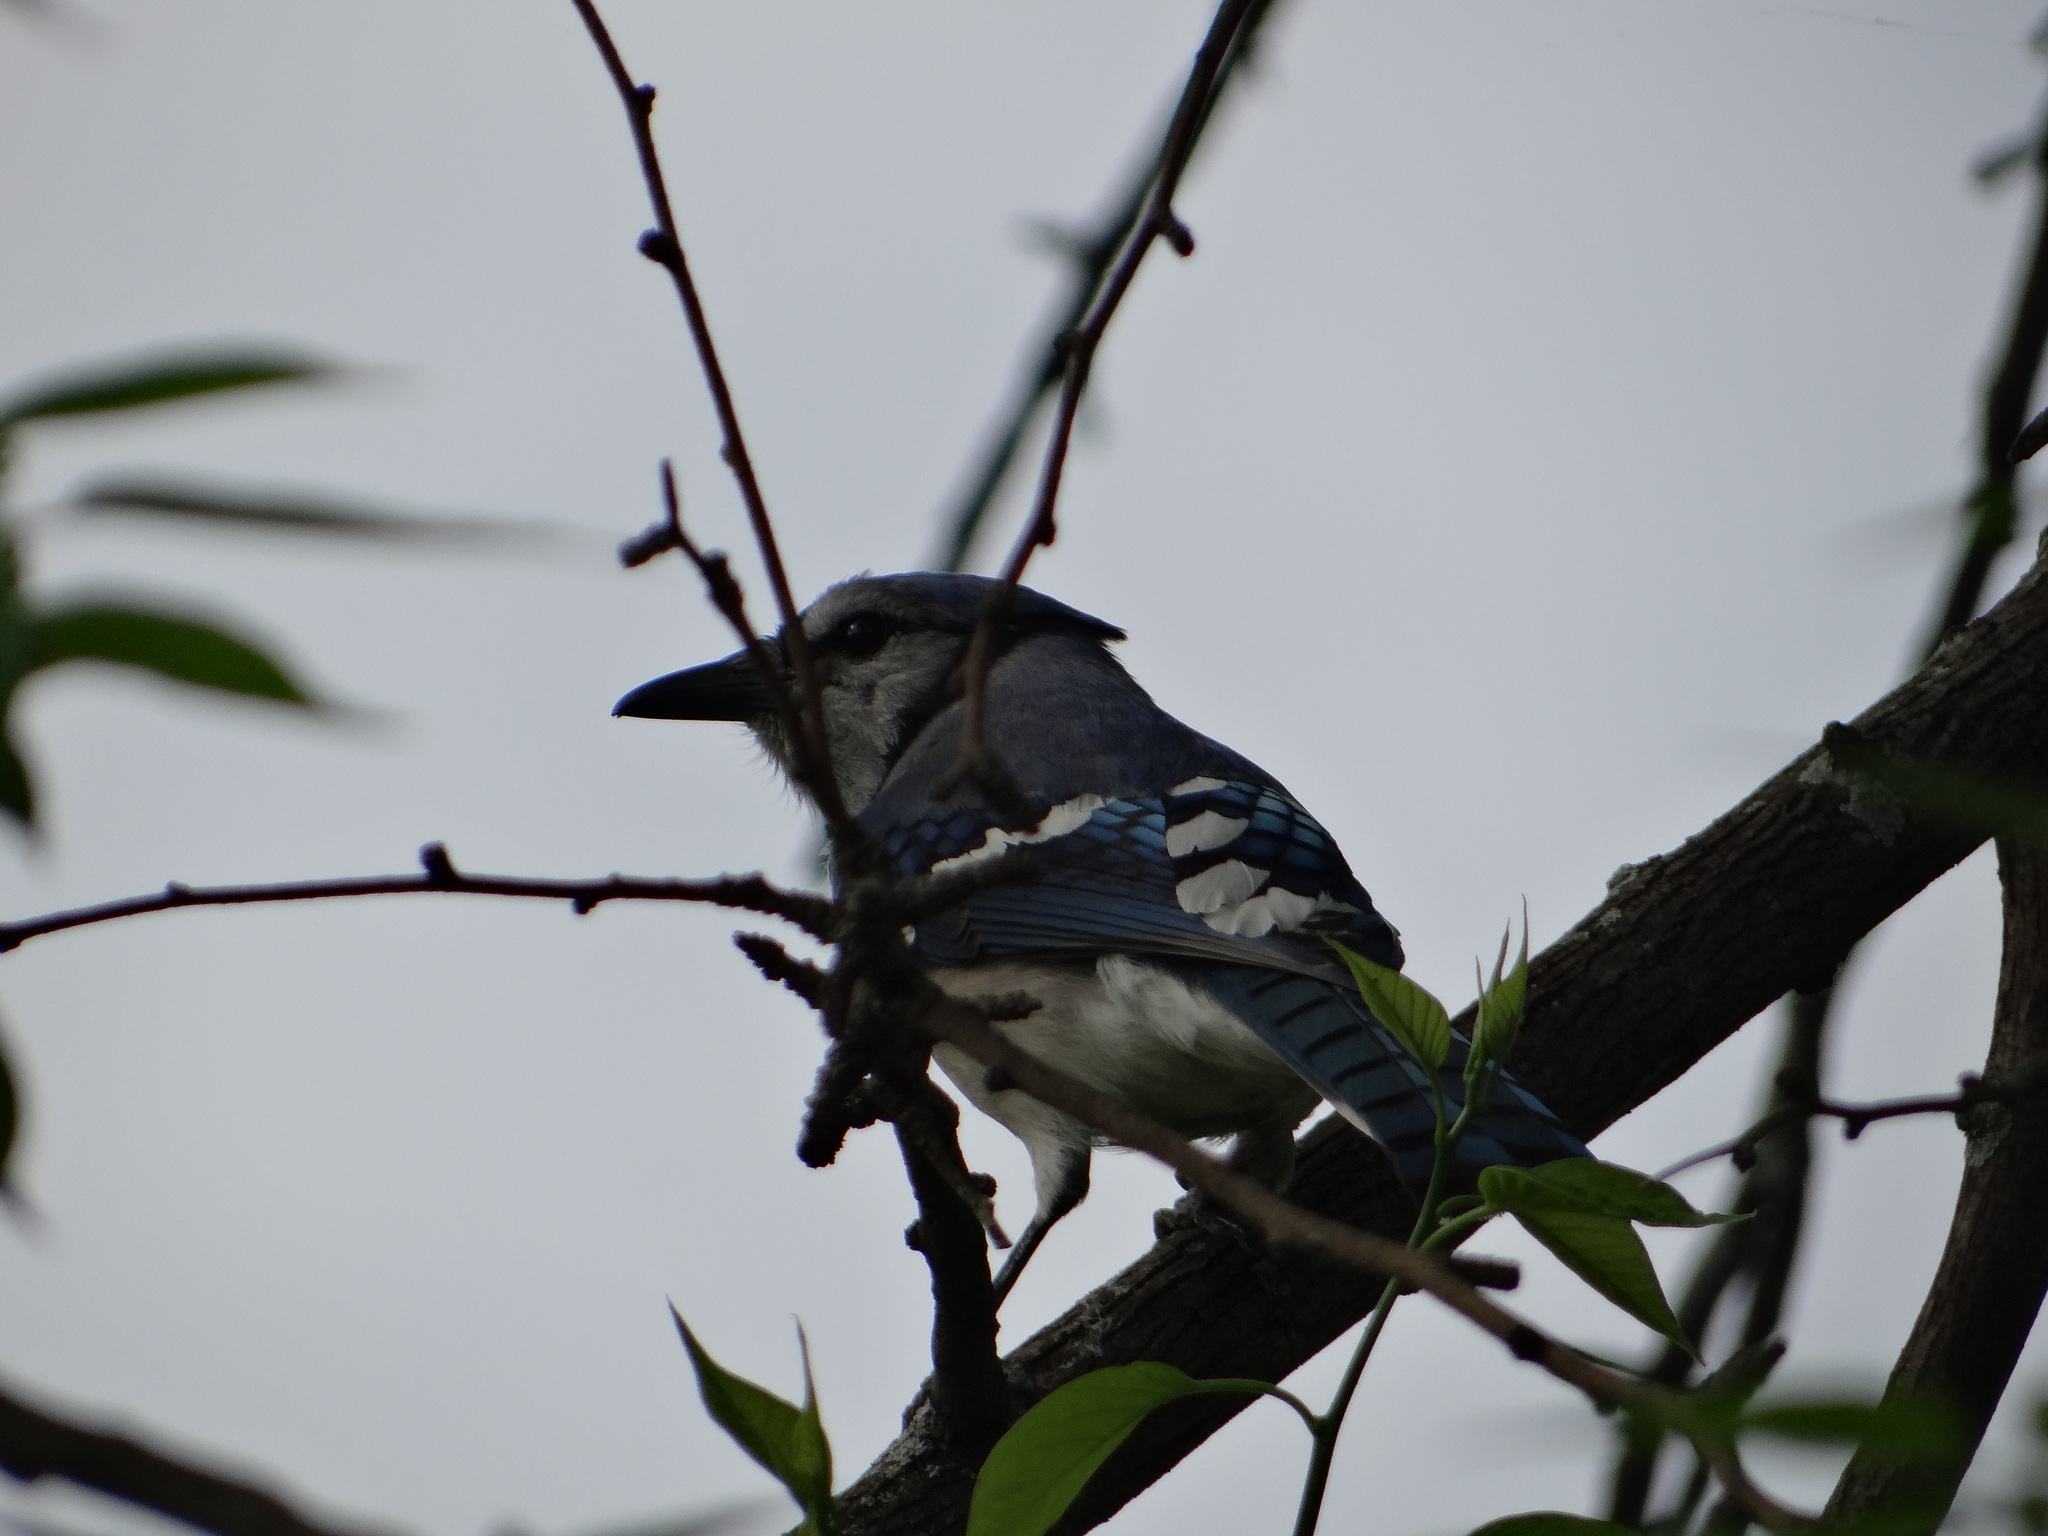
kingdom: Animalia
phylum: Chordata
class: Aves
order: Passeriformes
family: Corvidae
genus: Cyanocitta
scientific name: Cyanocitta cristata
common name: Blue jay
